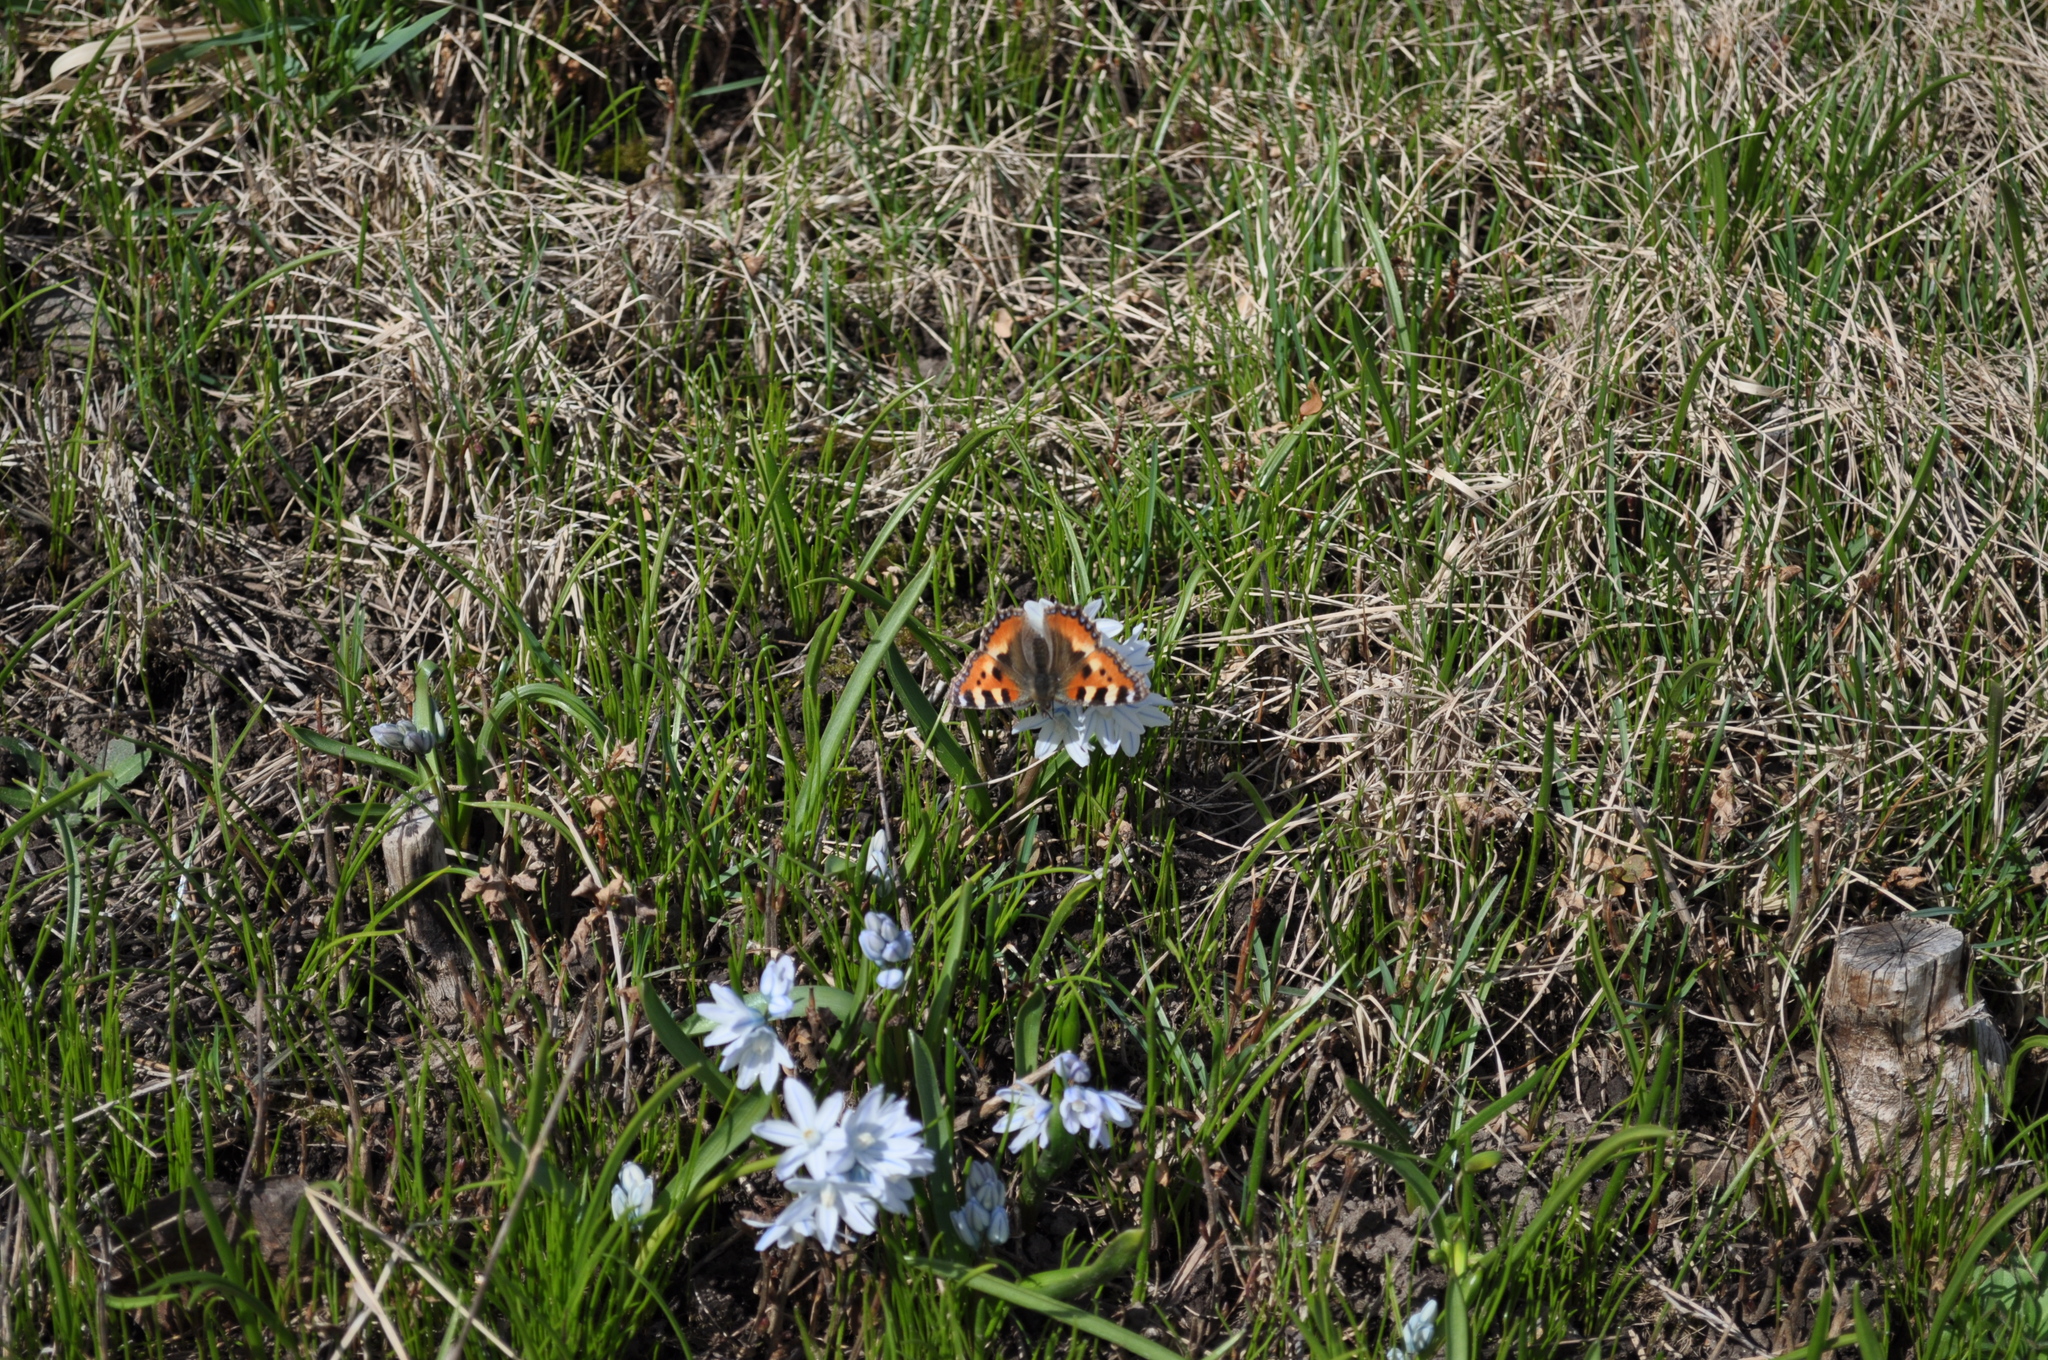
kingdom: Animalia
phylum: Arthropoda
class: Insecta
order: Lepidoptera
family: Nymphalidae
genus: Aglais
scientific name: Aglais urticae
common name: Small tortoiseshell
